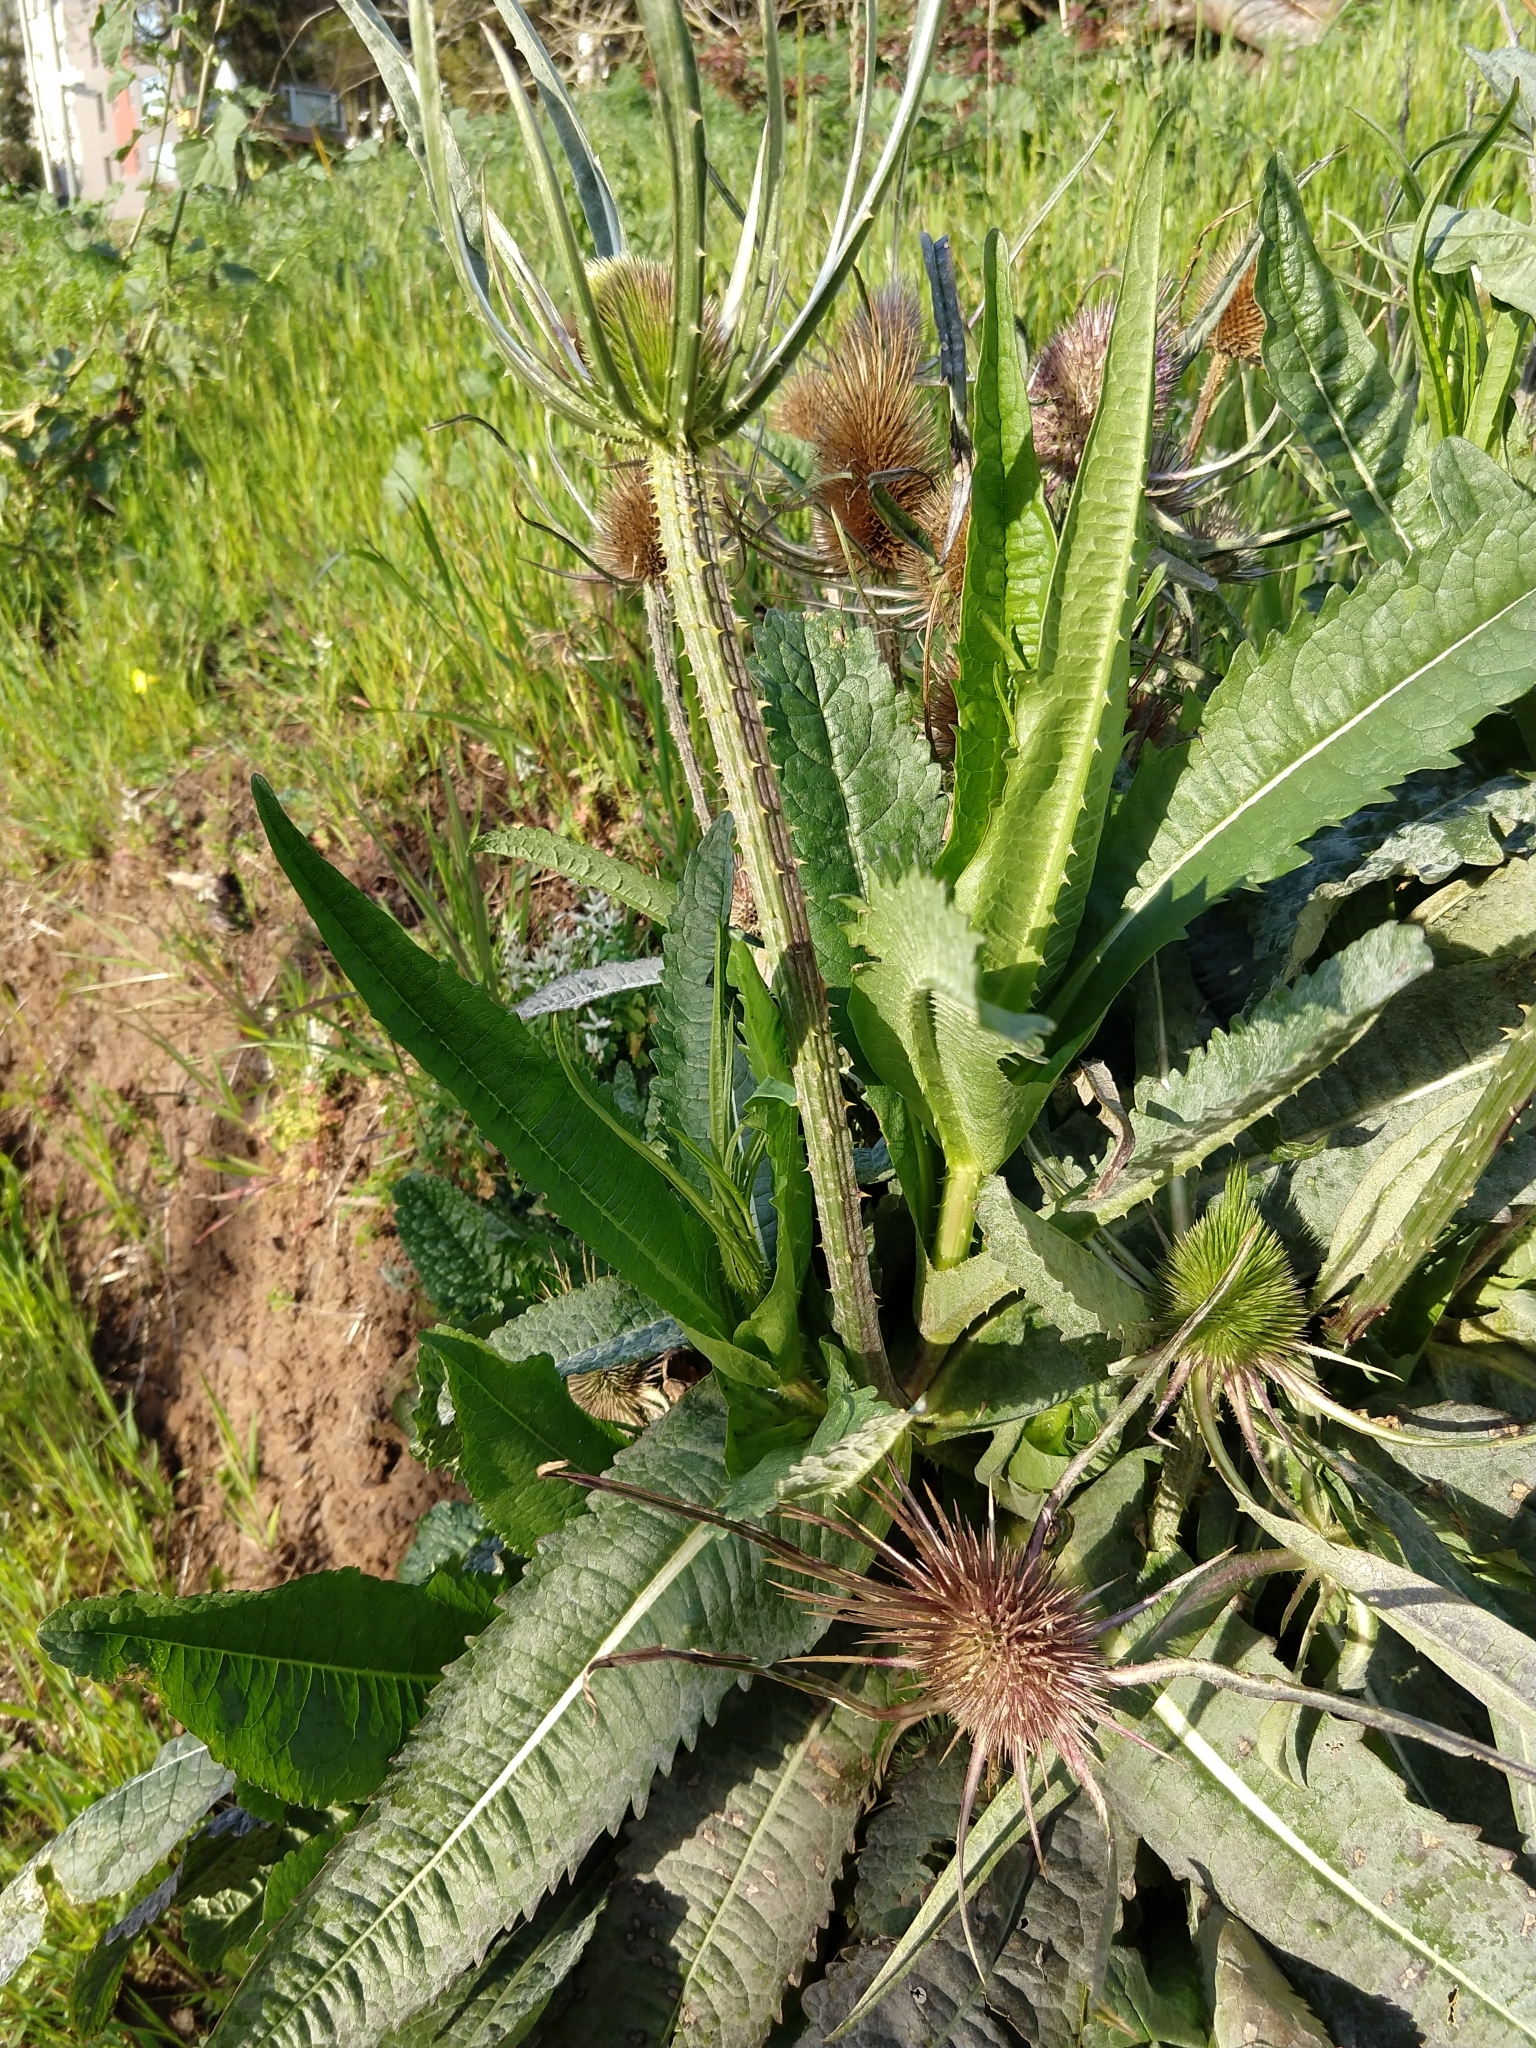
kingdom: Plantae
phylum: Tracheophyta
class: Magnoliopsida
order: Dipsacales
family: Caprifoliaceae
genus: Dipsacus
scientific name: Dipsacus fullonum
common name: Teasel
